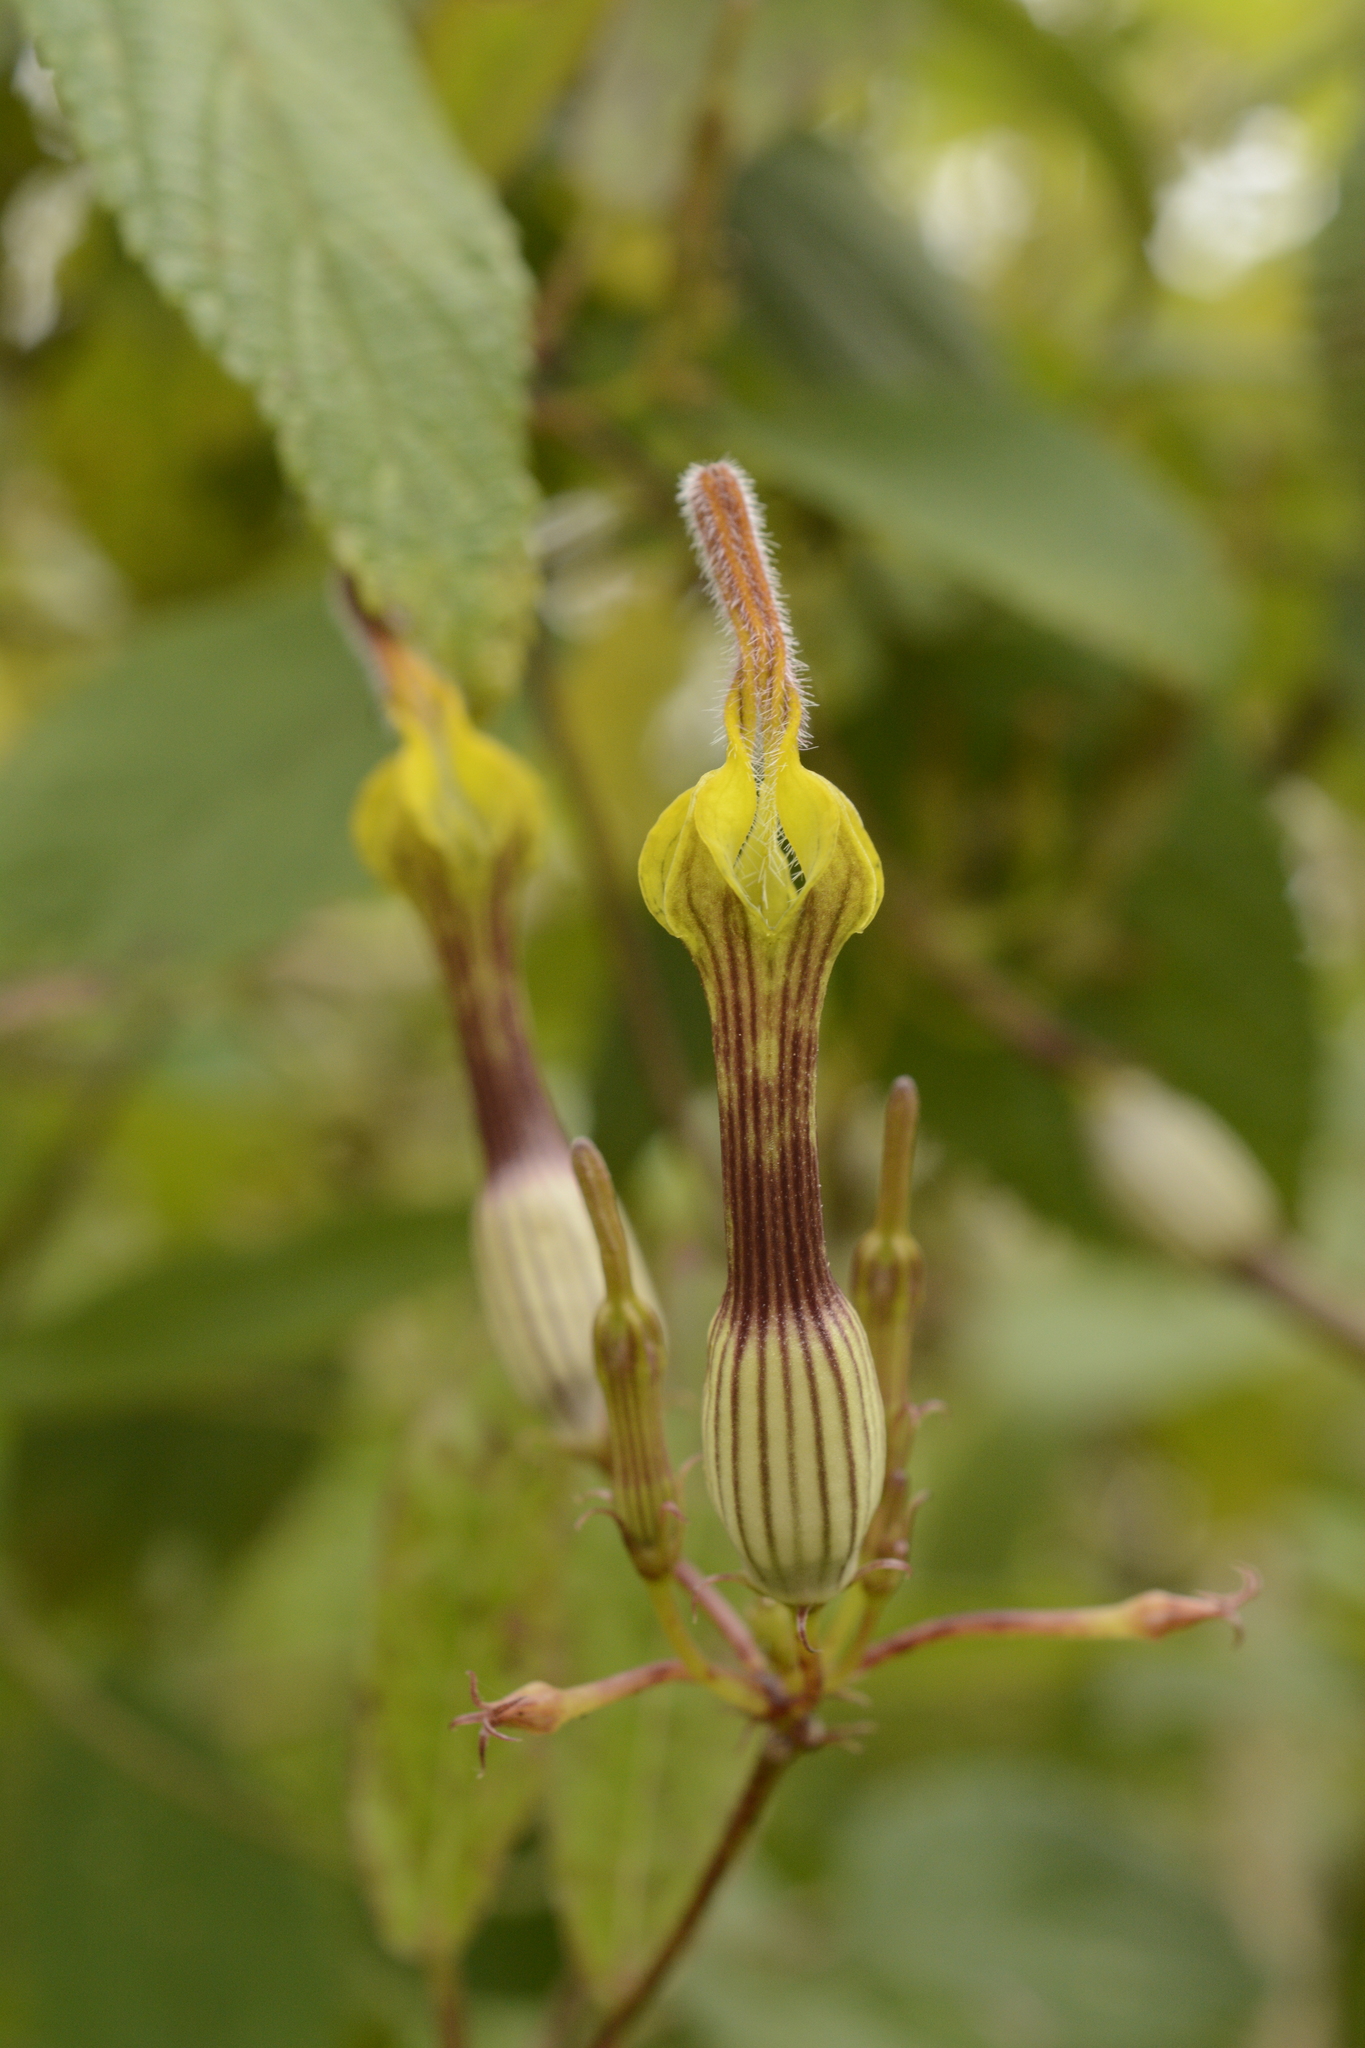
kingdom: Plantae
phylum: Tracheophyta
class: Magnoliopsida
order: Gentianales
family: Apocynaceae
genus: Ceropegia
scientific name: Ceropegia candelabrum
